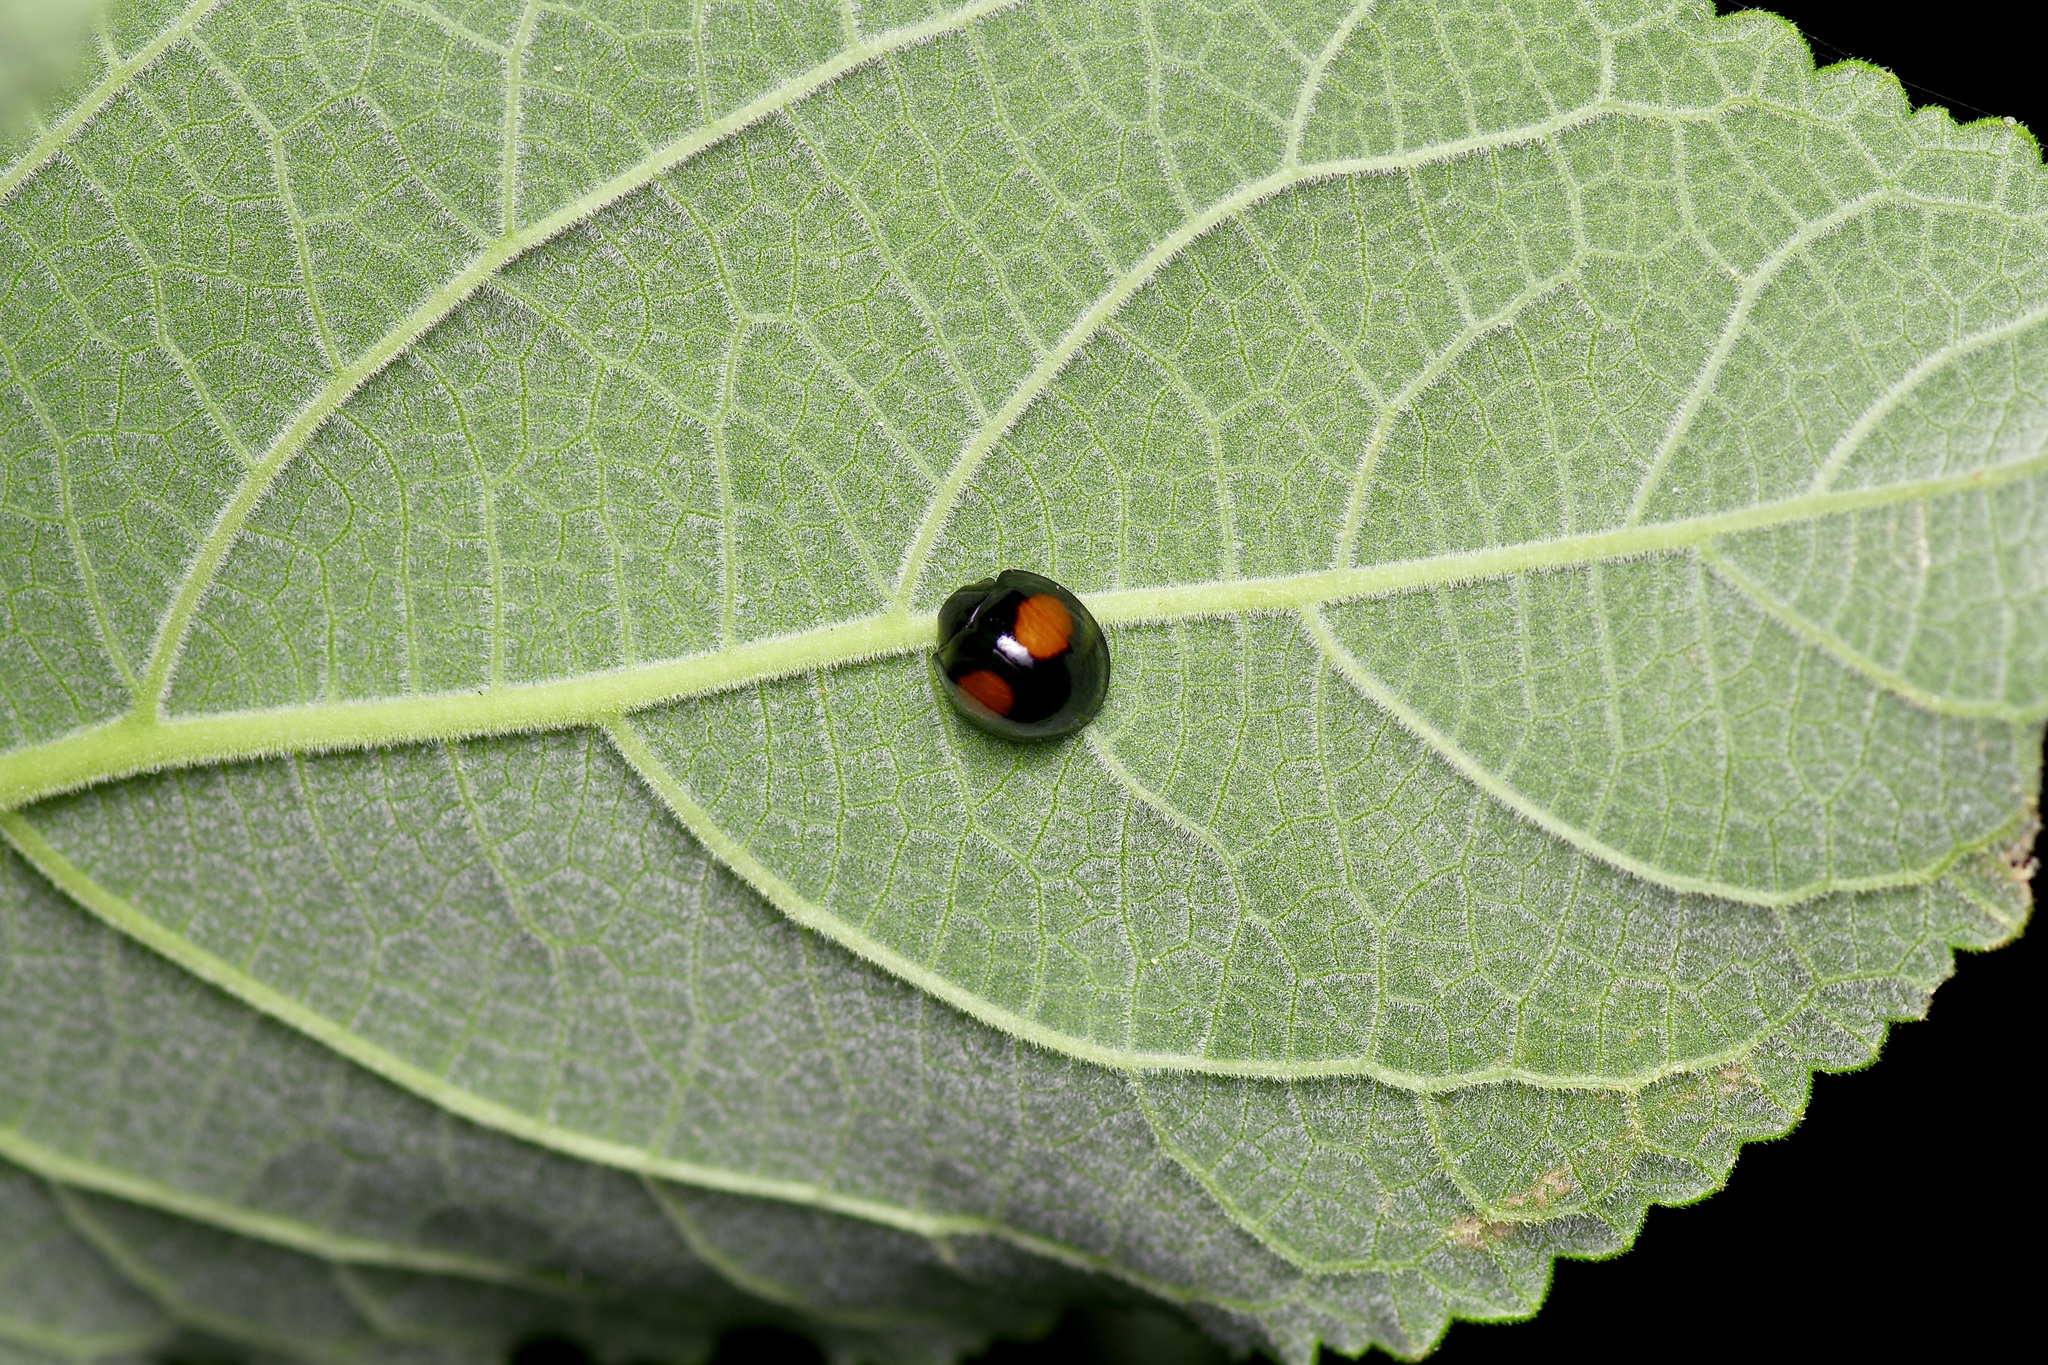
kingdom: Animalia
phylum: Arthropoda
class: Insecta
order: Coleoptera
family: Coccinellidae
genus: Chilocorus
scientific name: Chilocorus cacti
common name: Cactus lady beetle
